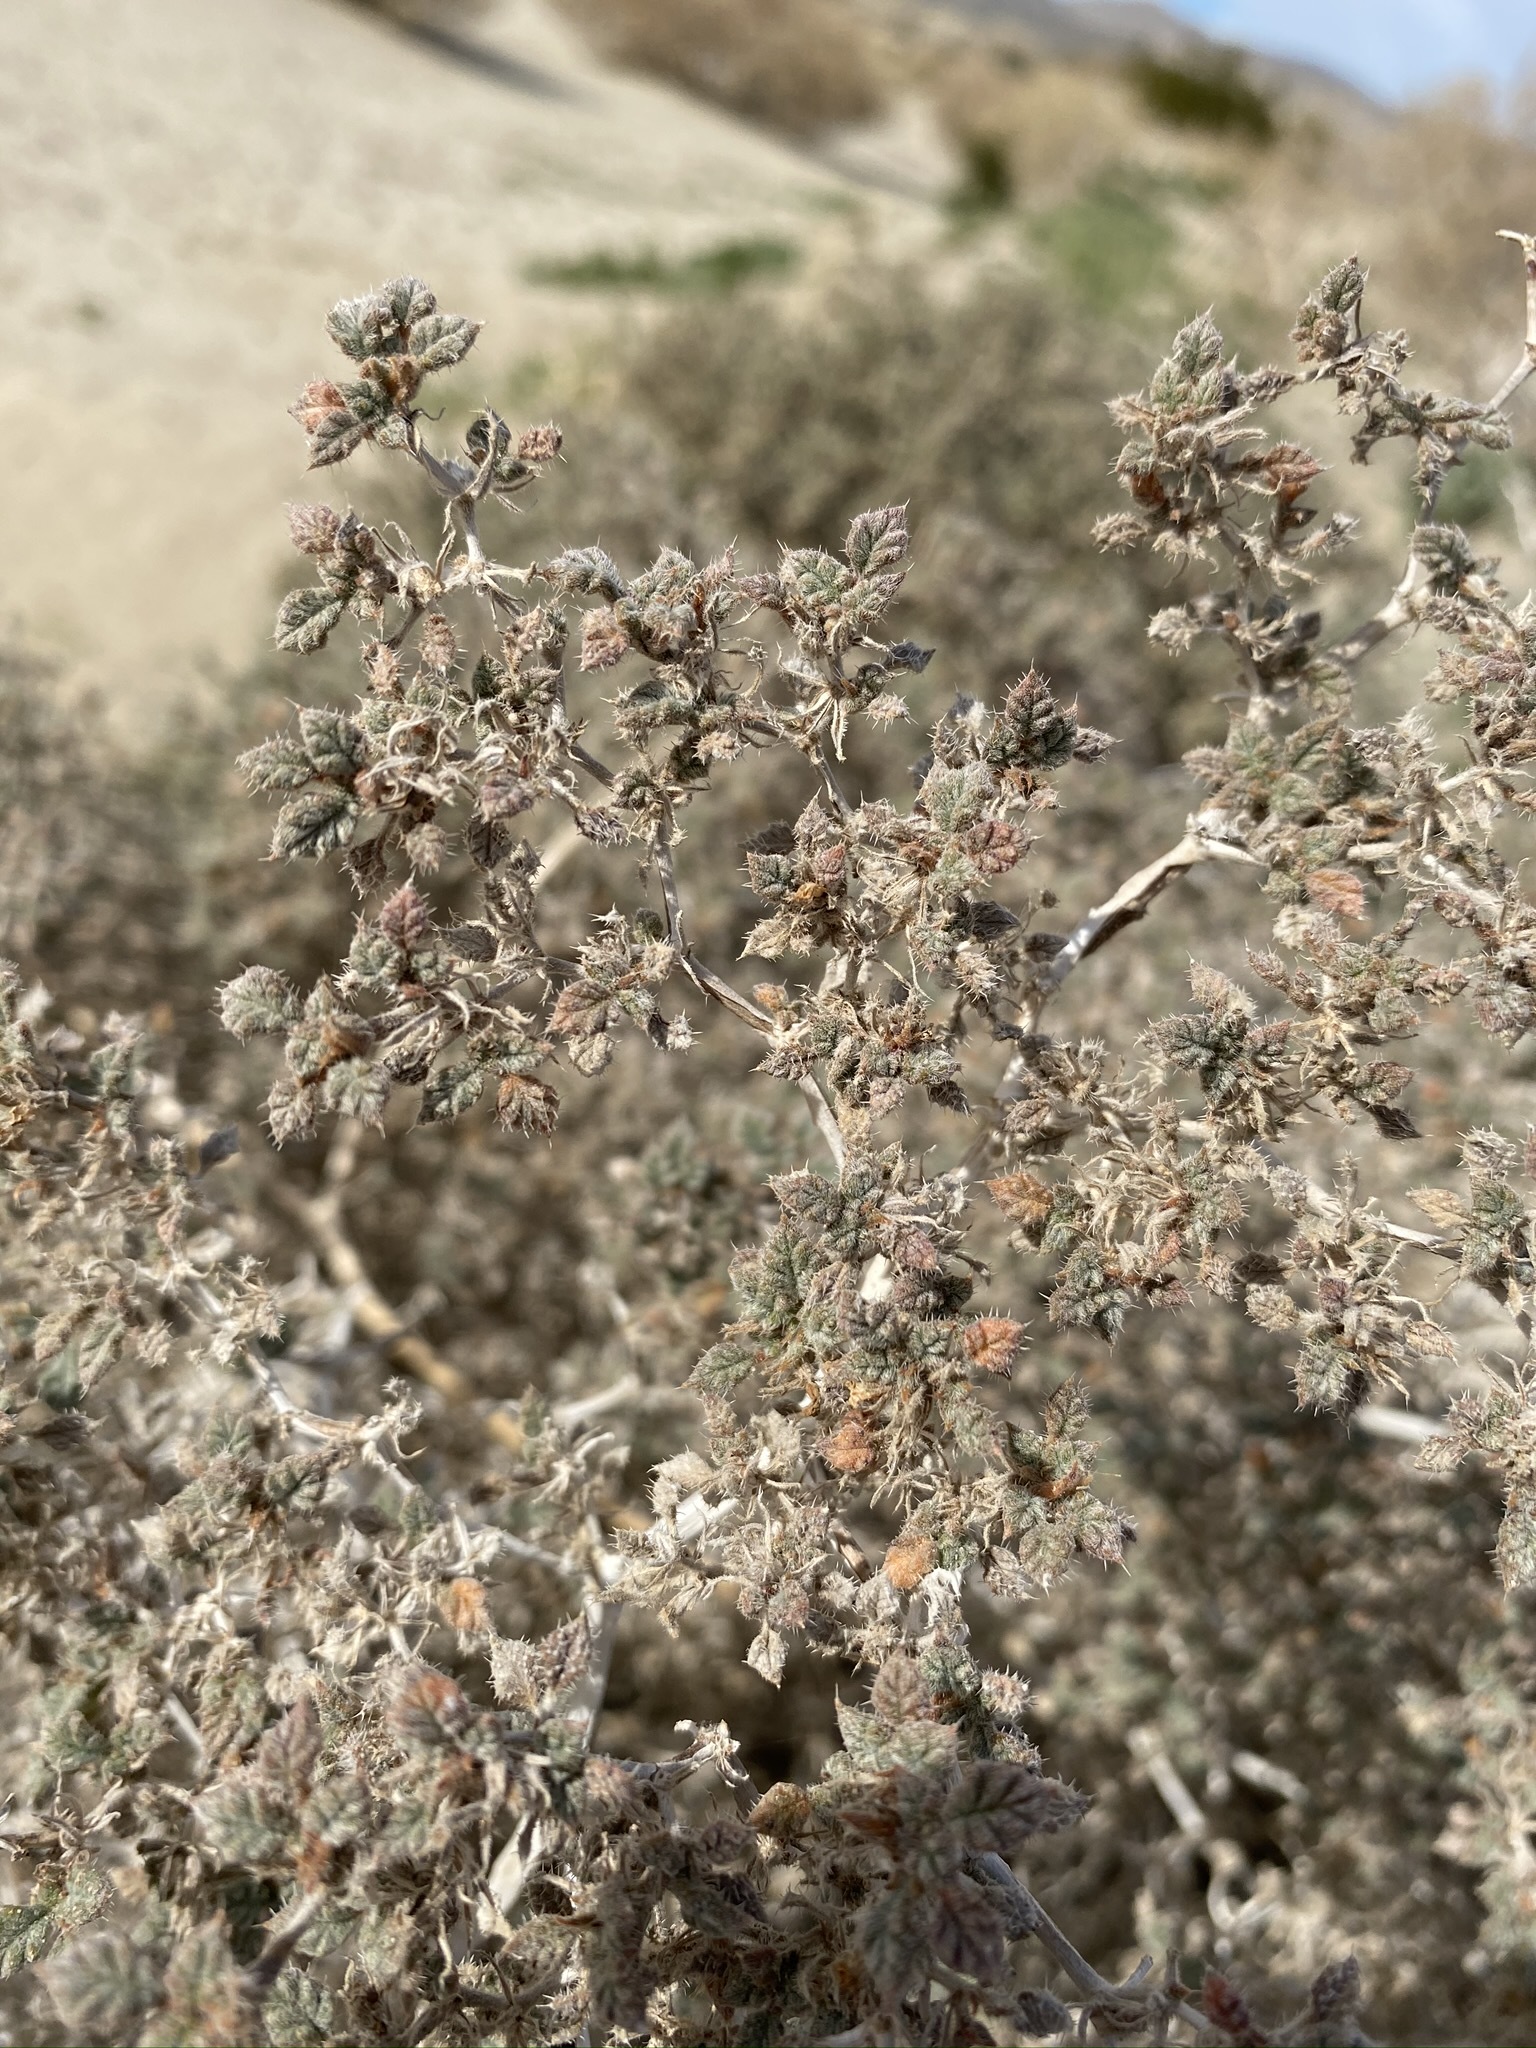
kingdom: Plantae
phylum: Tracheophyta
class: Magnoliopsida
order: Boraginales
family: Ehretiaceae
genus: Tiquilia
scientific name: Tiquilia palmeri
